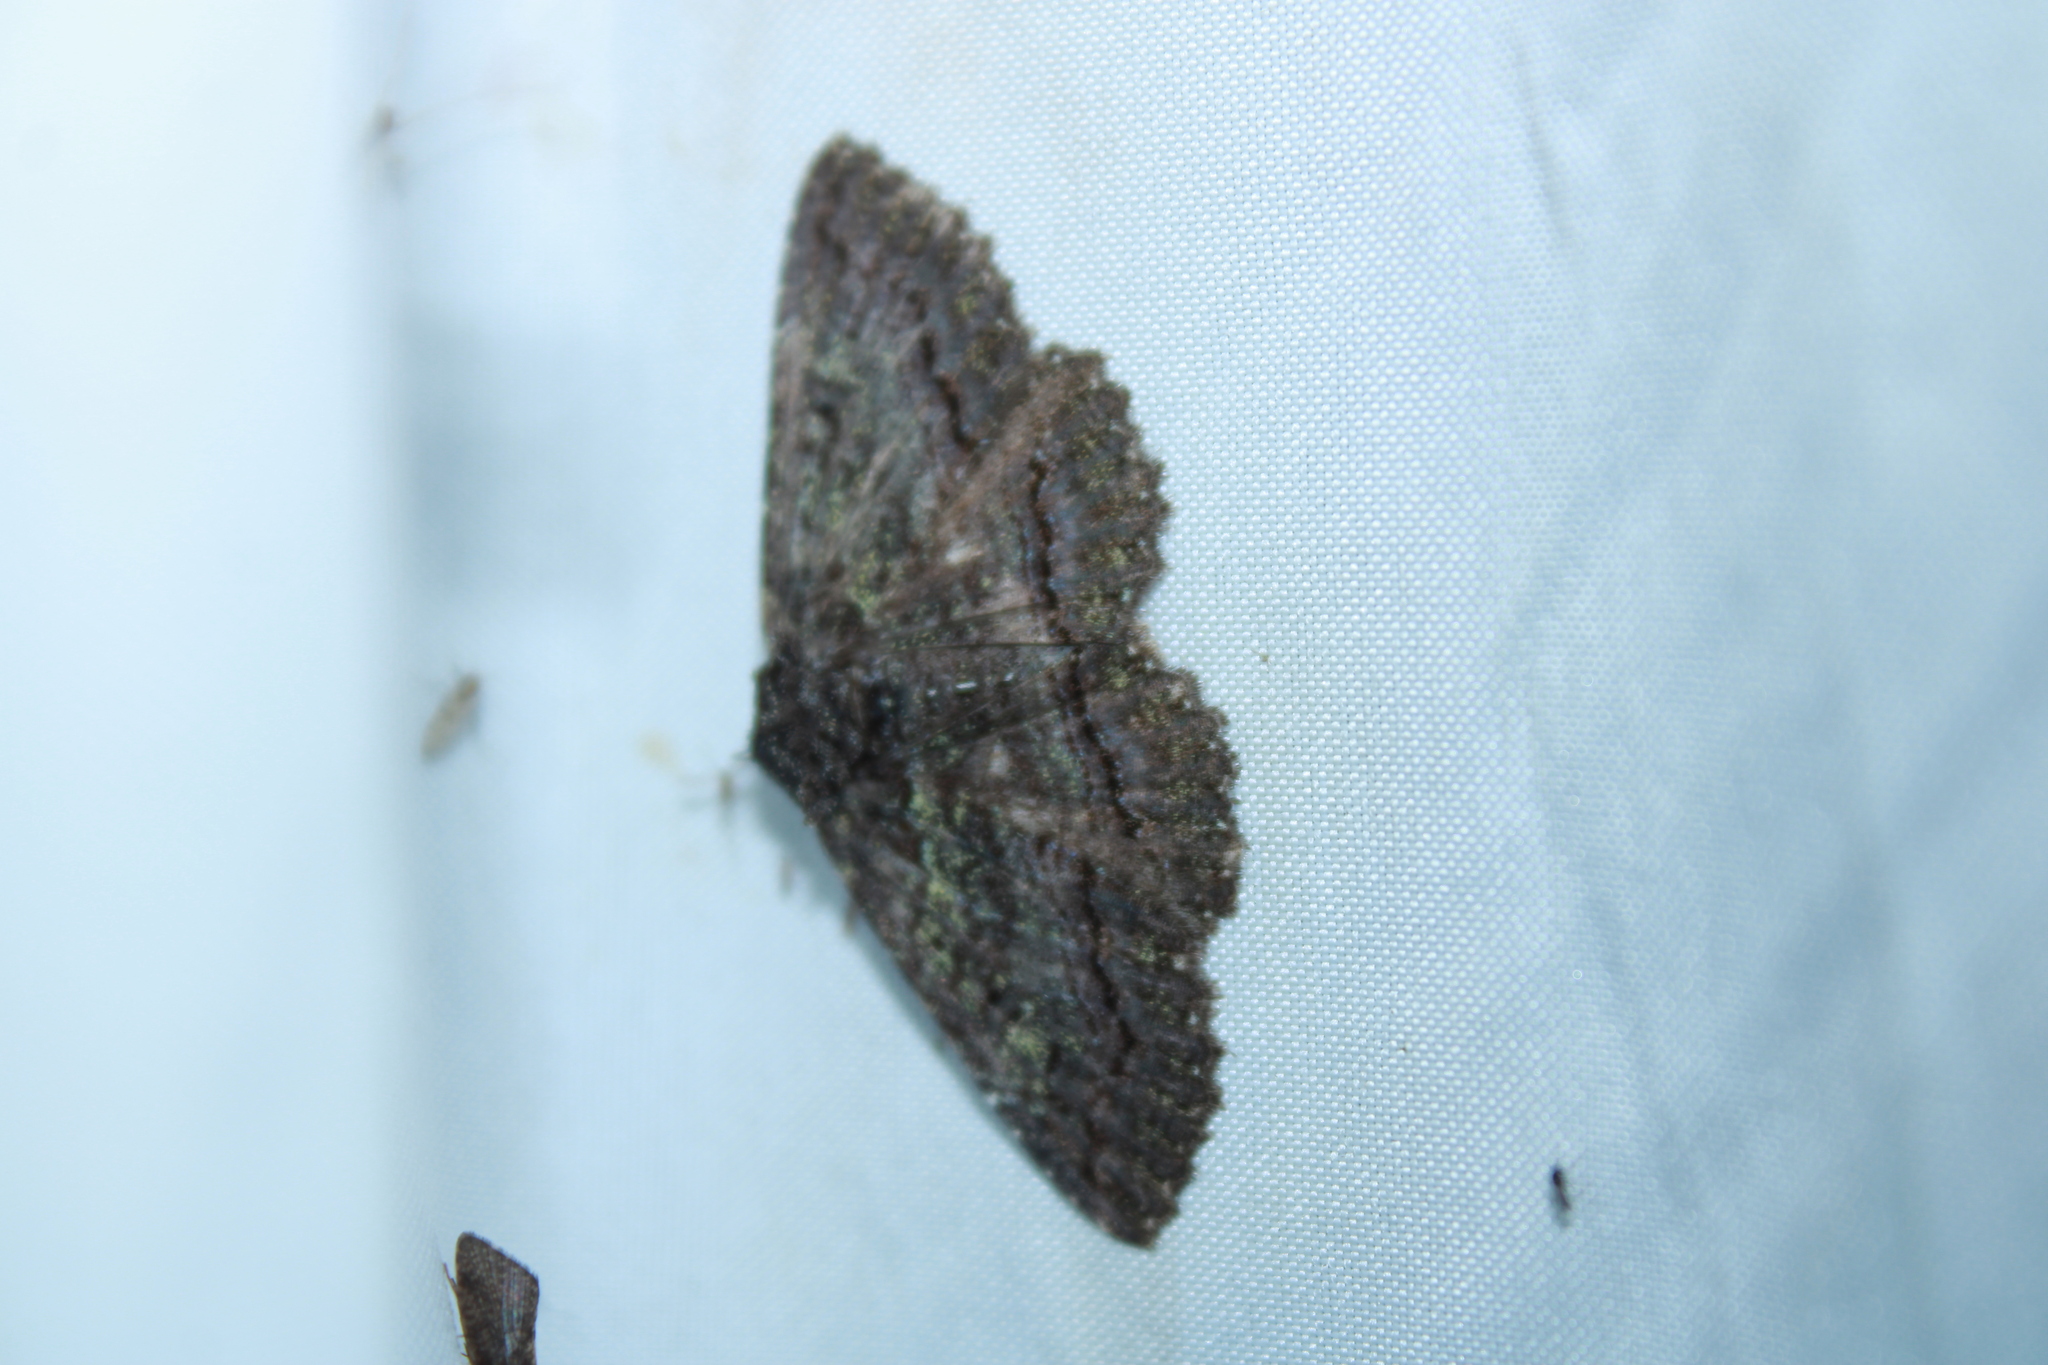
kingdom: Animalia
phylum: Arthropoda
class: Insecta
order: Lepidoptera
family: Erebidae
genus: Zale
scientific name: Zale aeruginosa
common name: Green-dusted zale moth
